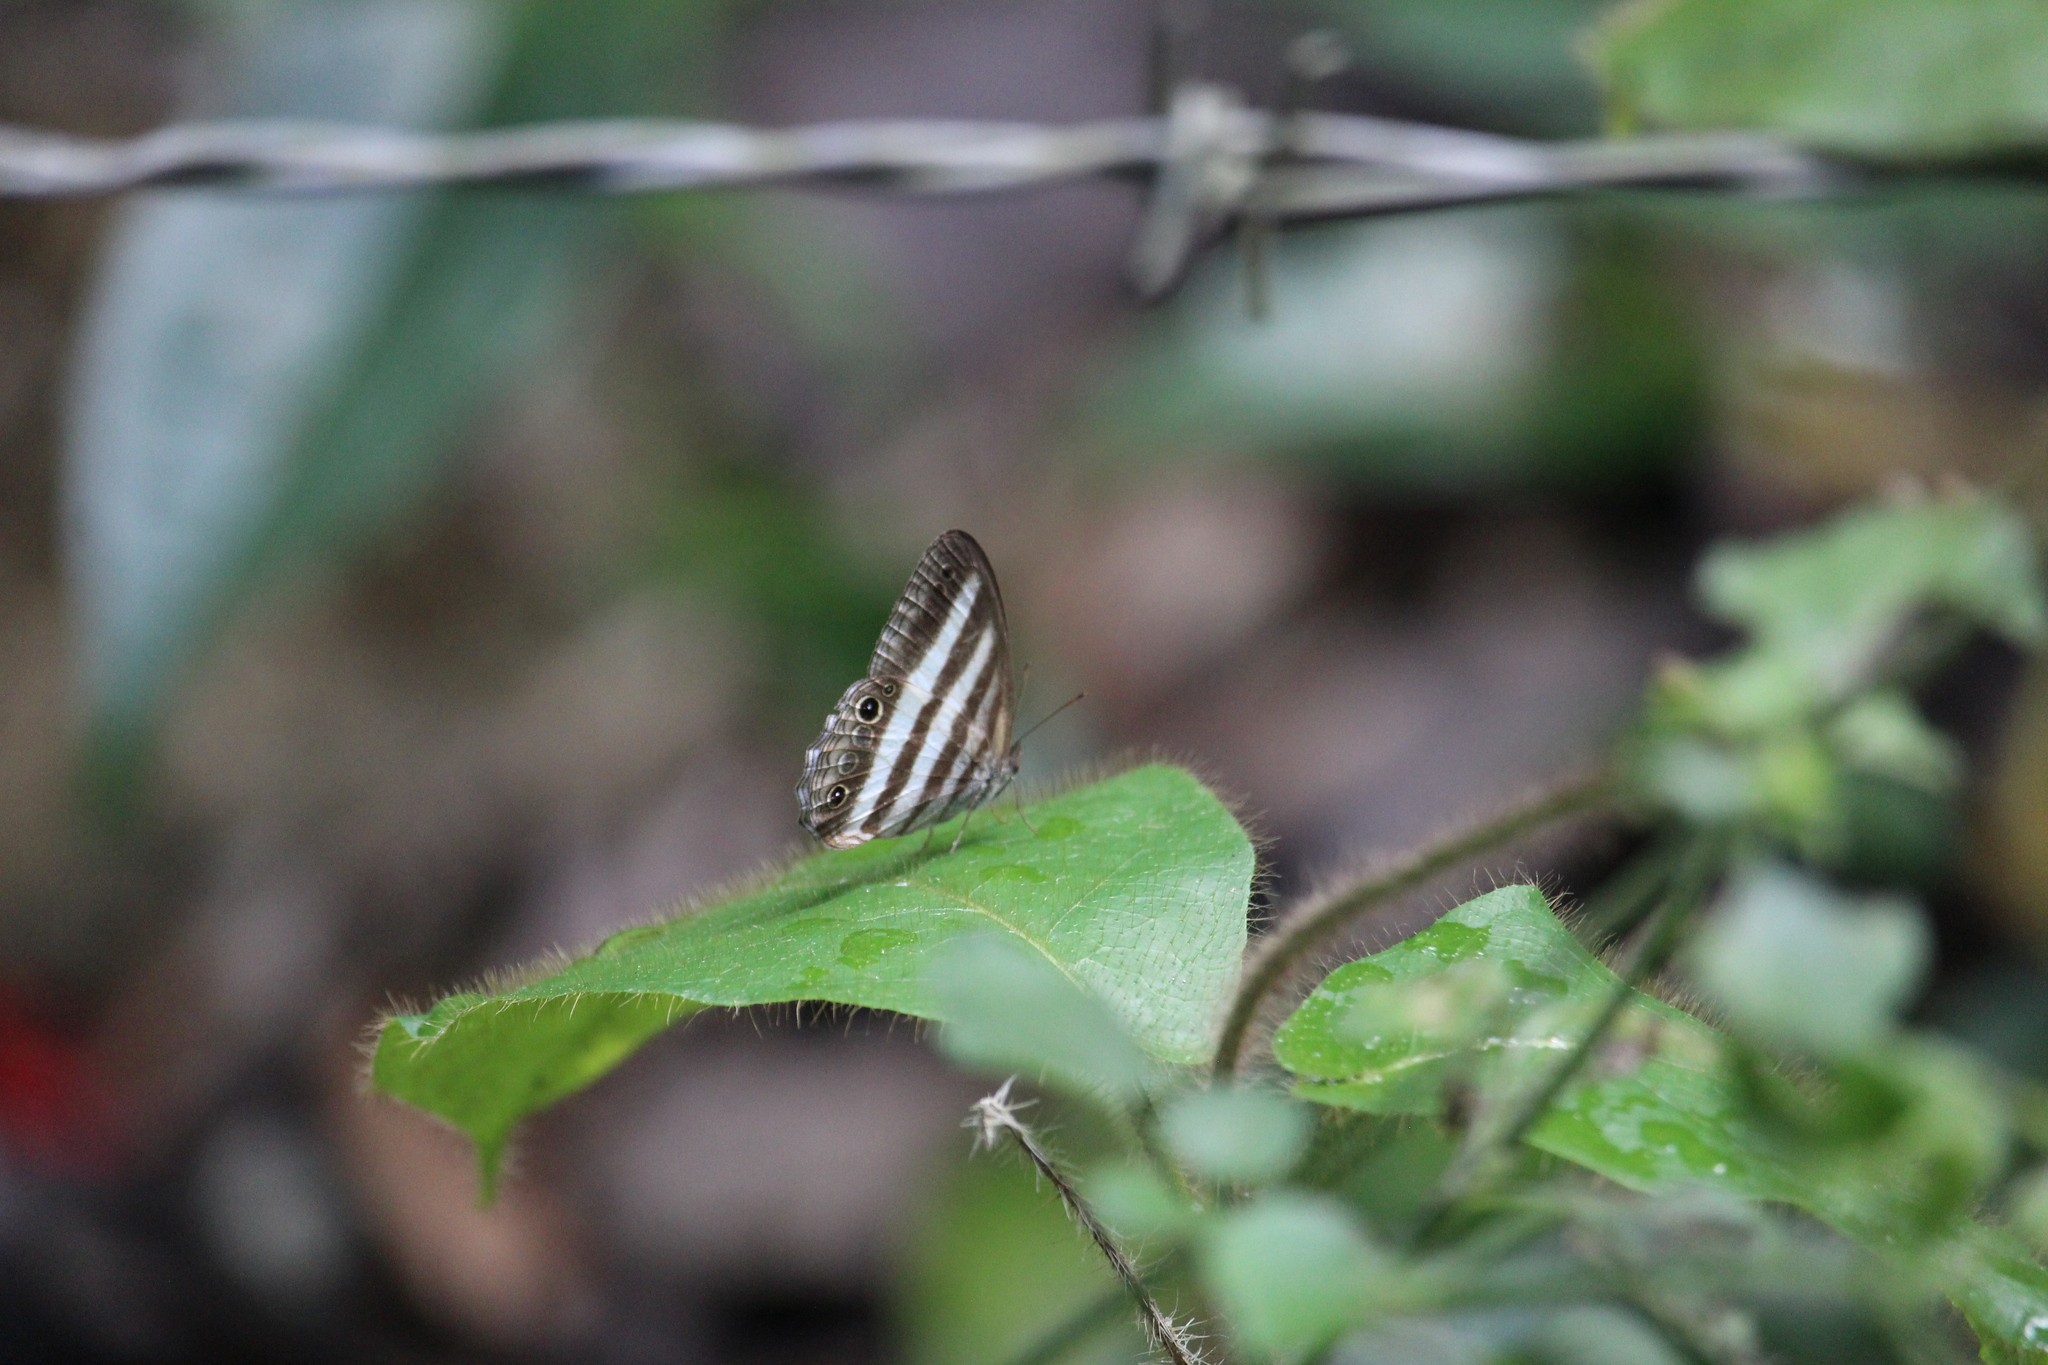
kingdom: Animalia
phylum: Arthropoda
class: Insecta
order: Lepidoptera
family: Nymphalidae
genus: Pareuptychia
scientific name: Pareuptychia hesione
